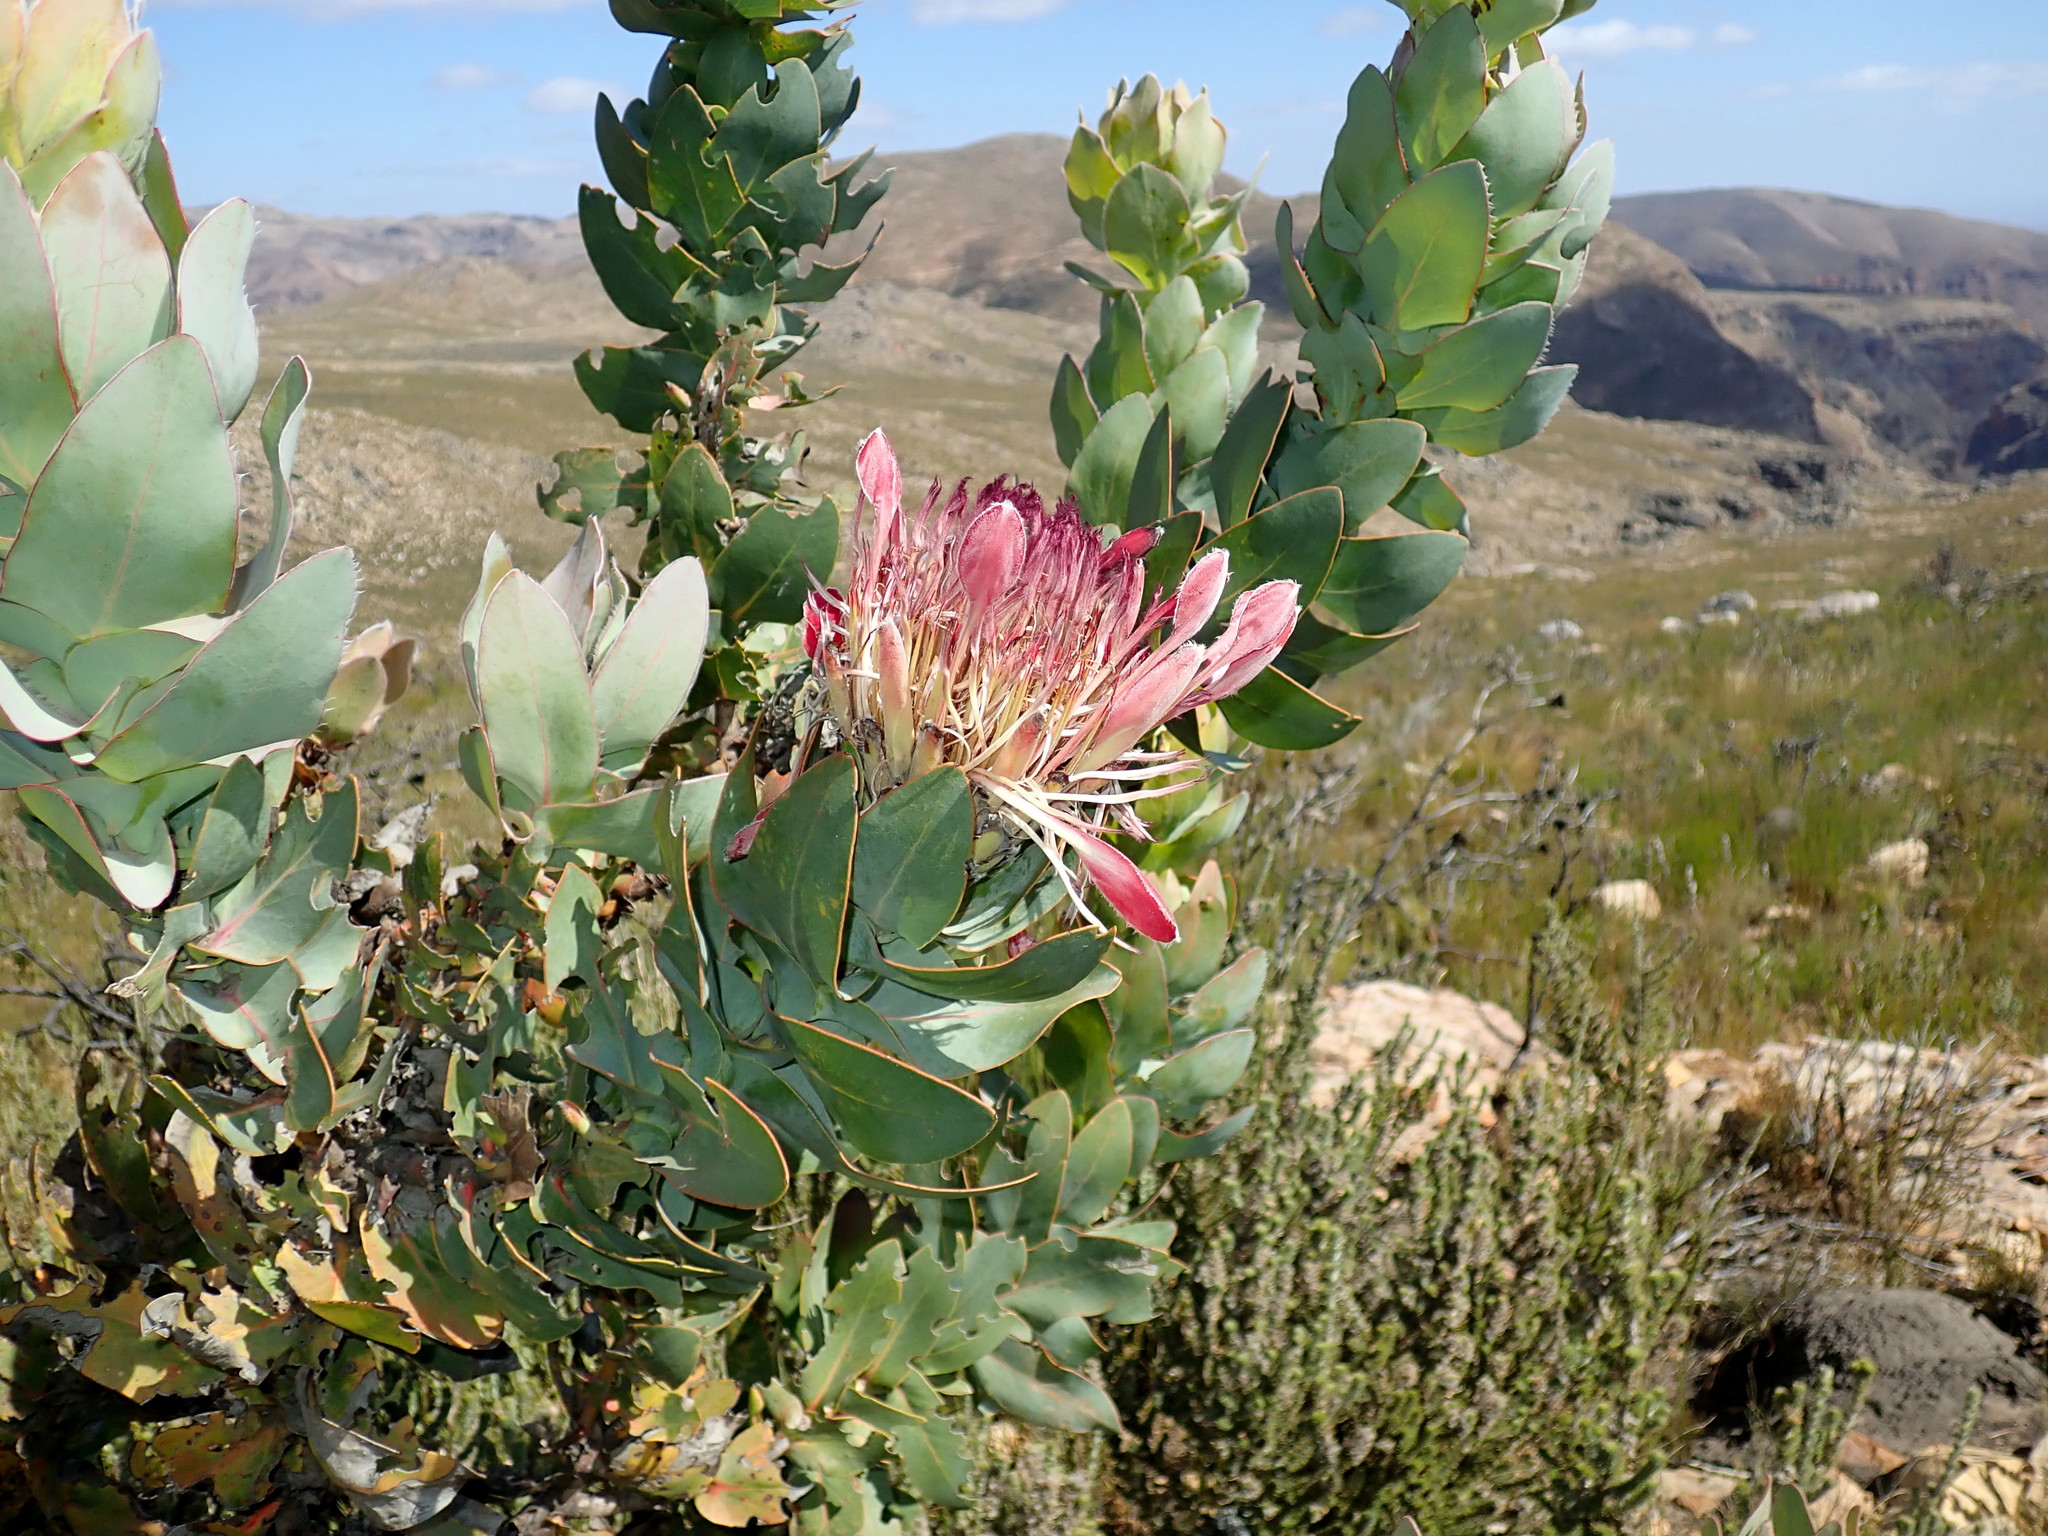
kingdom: Plantae
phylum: Tracheophyta
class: Magnoliopsida
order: Proteales
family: Proteaceae
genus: Protea
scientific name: Protea eximia
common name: Broad-leaved sugarbush
